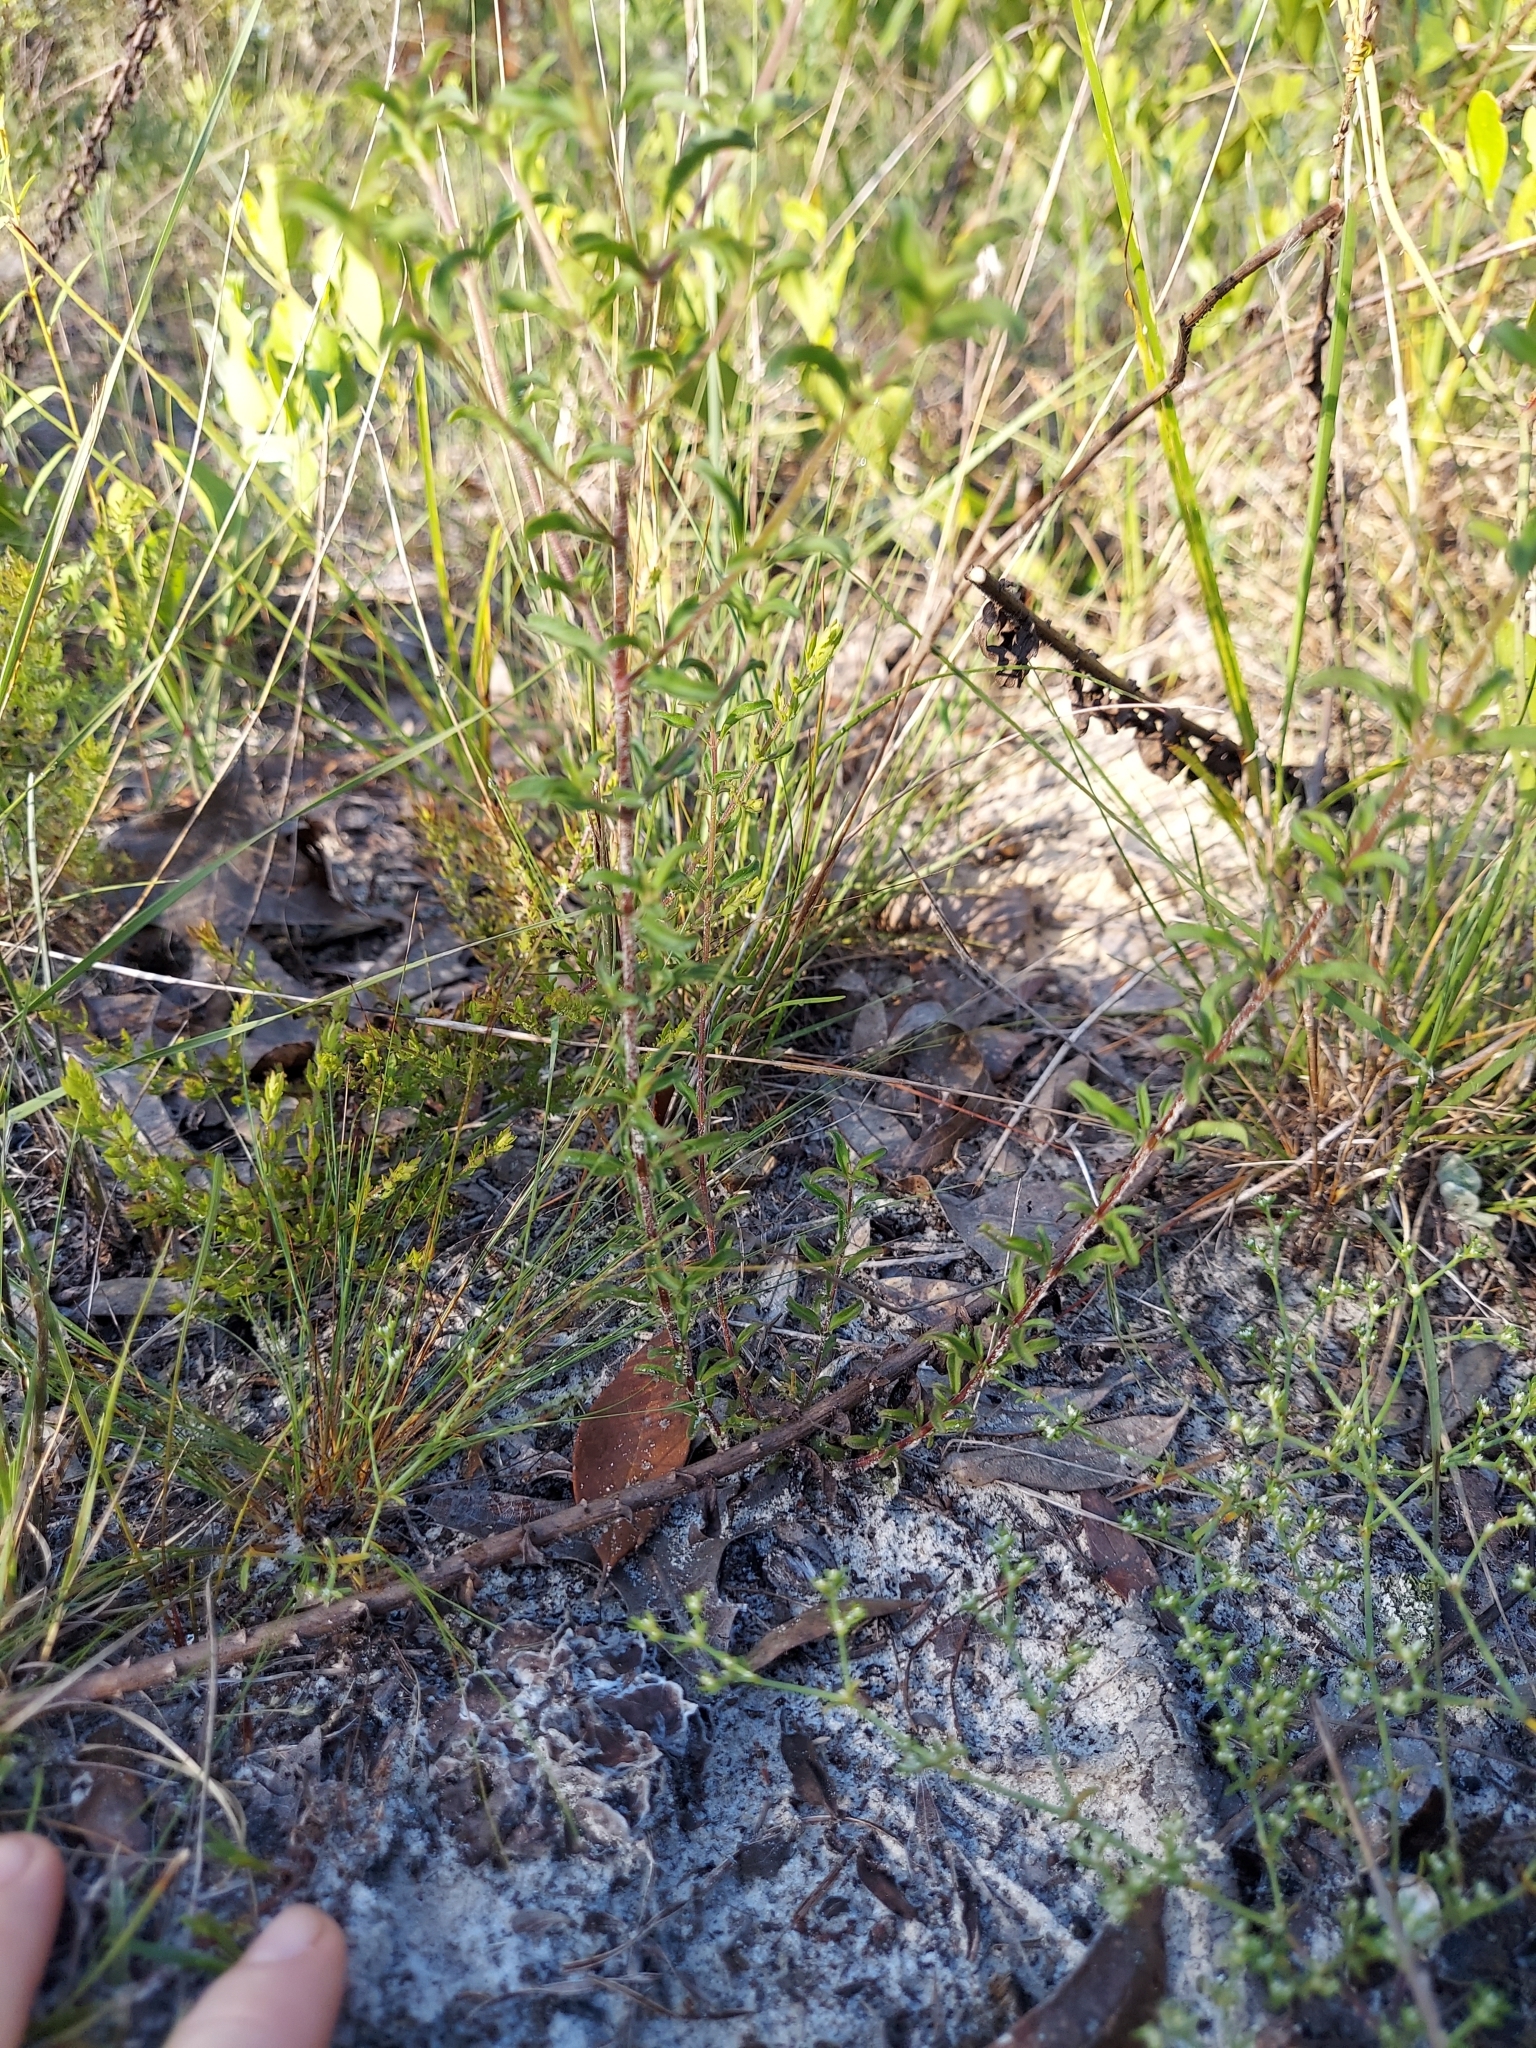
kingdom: Plantae
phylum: Tracheophyta
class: Magnoliopsida
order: Lamiales
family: Lamiaceae
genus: Trichostema
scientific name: Trichostema microphyllum
